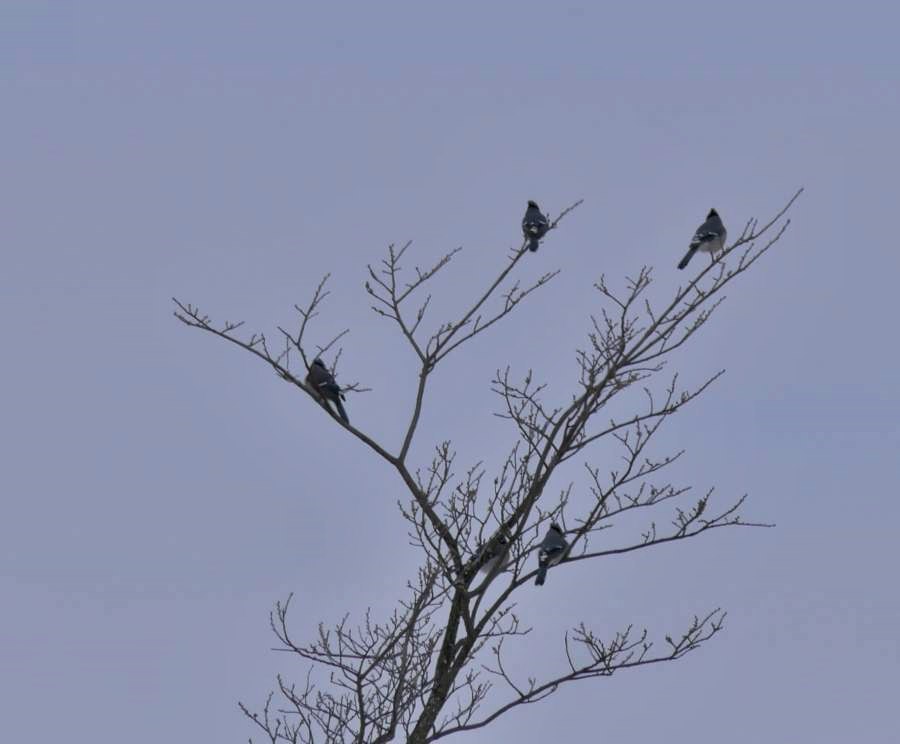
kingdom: Animalia
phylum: Chordata
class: Aves
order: Passeriformes
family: Corvidae
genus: Cyanocitta
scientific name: Cyanocitta cristata
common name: Blue jay
